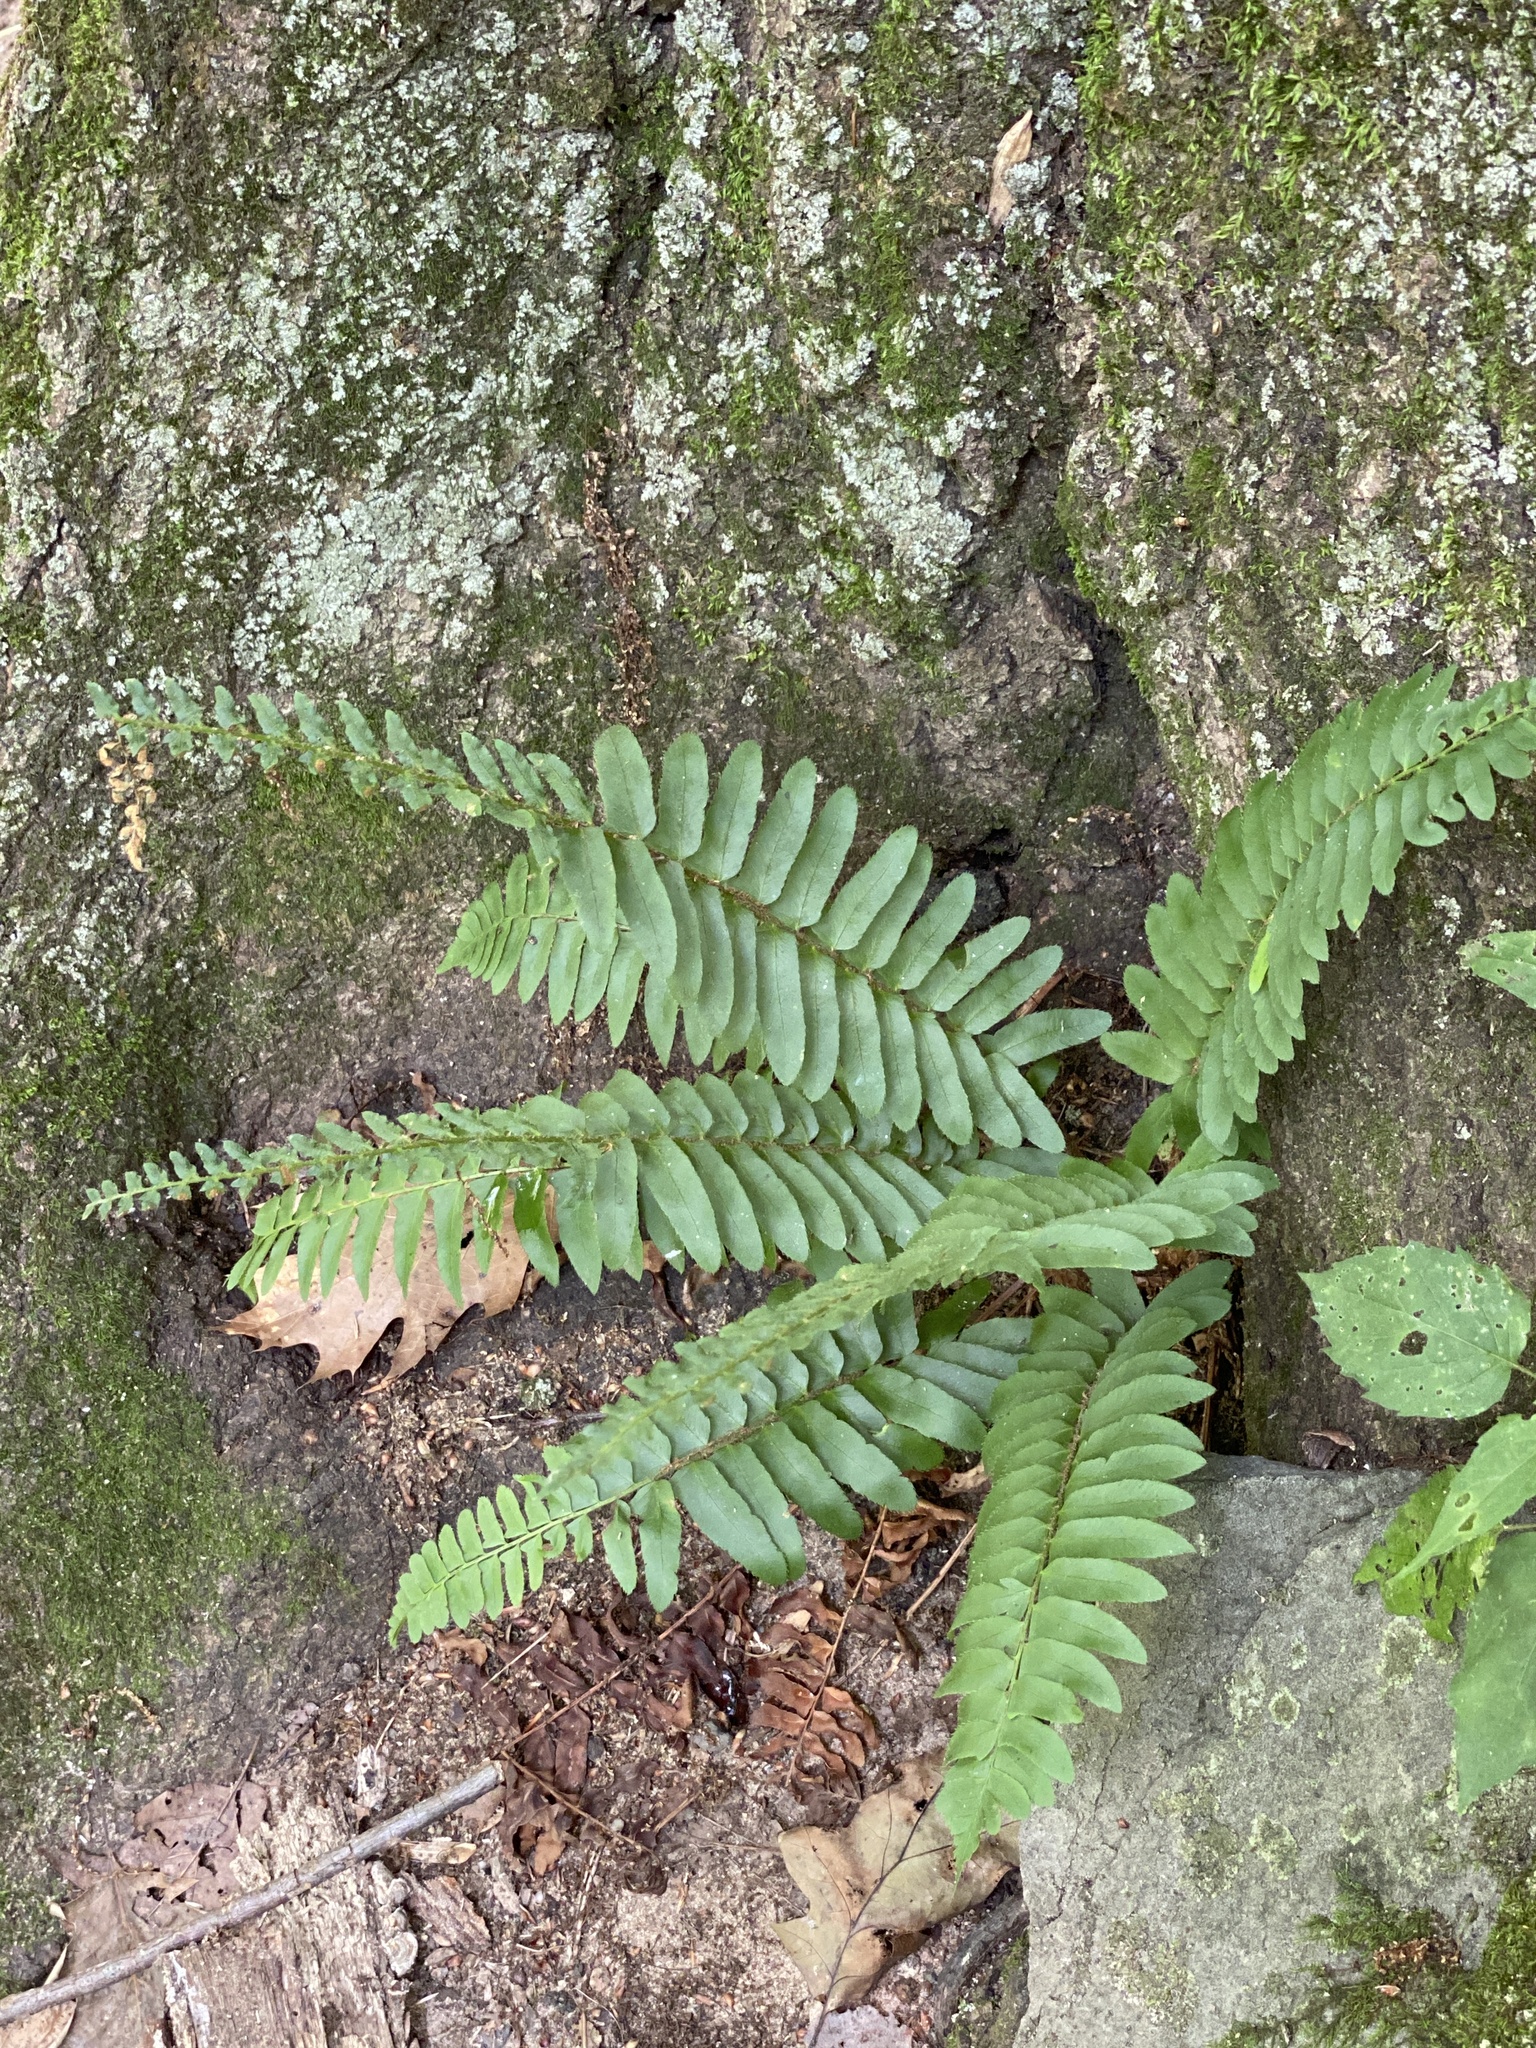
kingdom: Plantae
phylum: Tracheophyta
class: Polypodiopsida
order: Polypodiales
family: Dryopteridaceae
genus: Polystichum
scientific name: Polystichum acrostichoides
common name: Christmas fern
